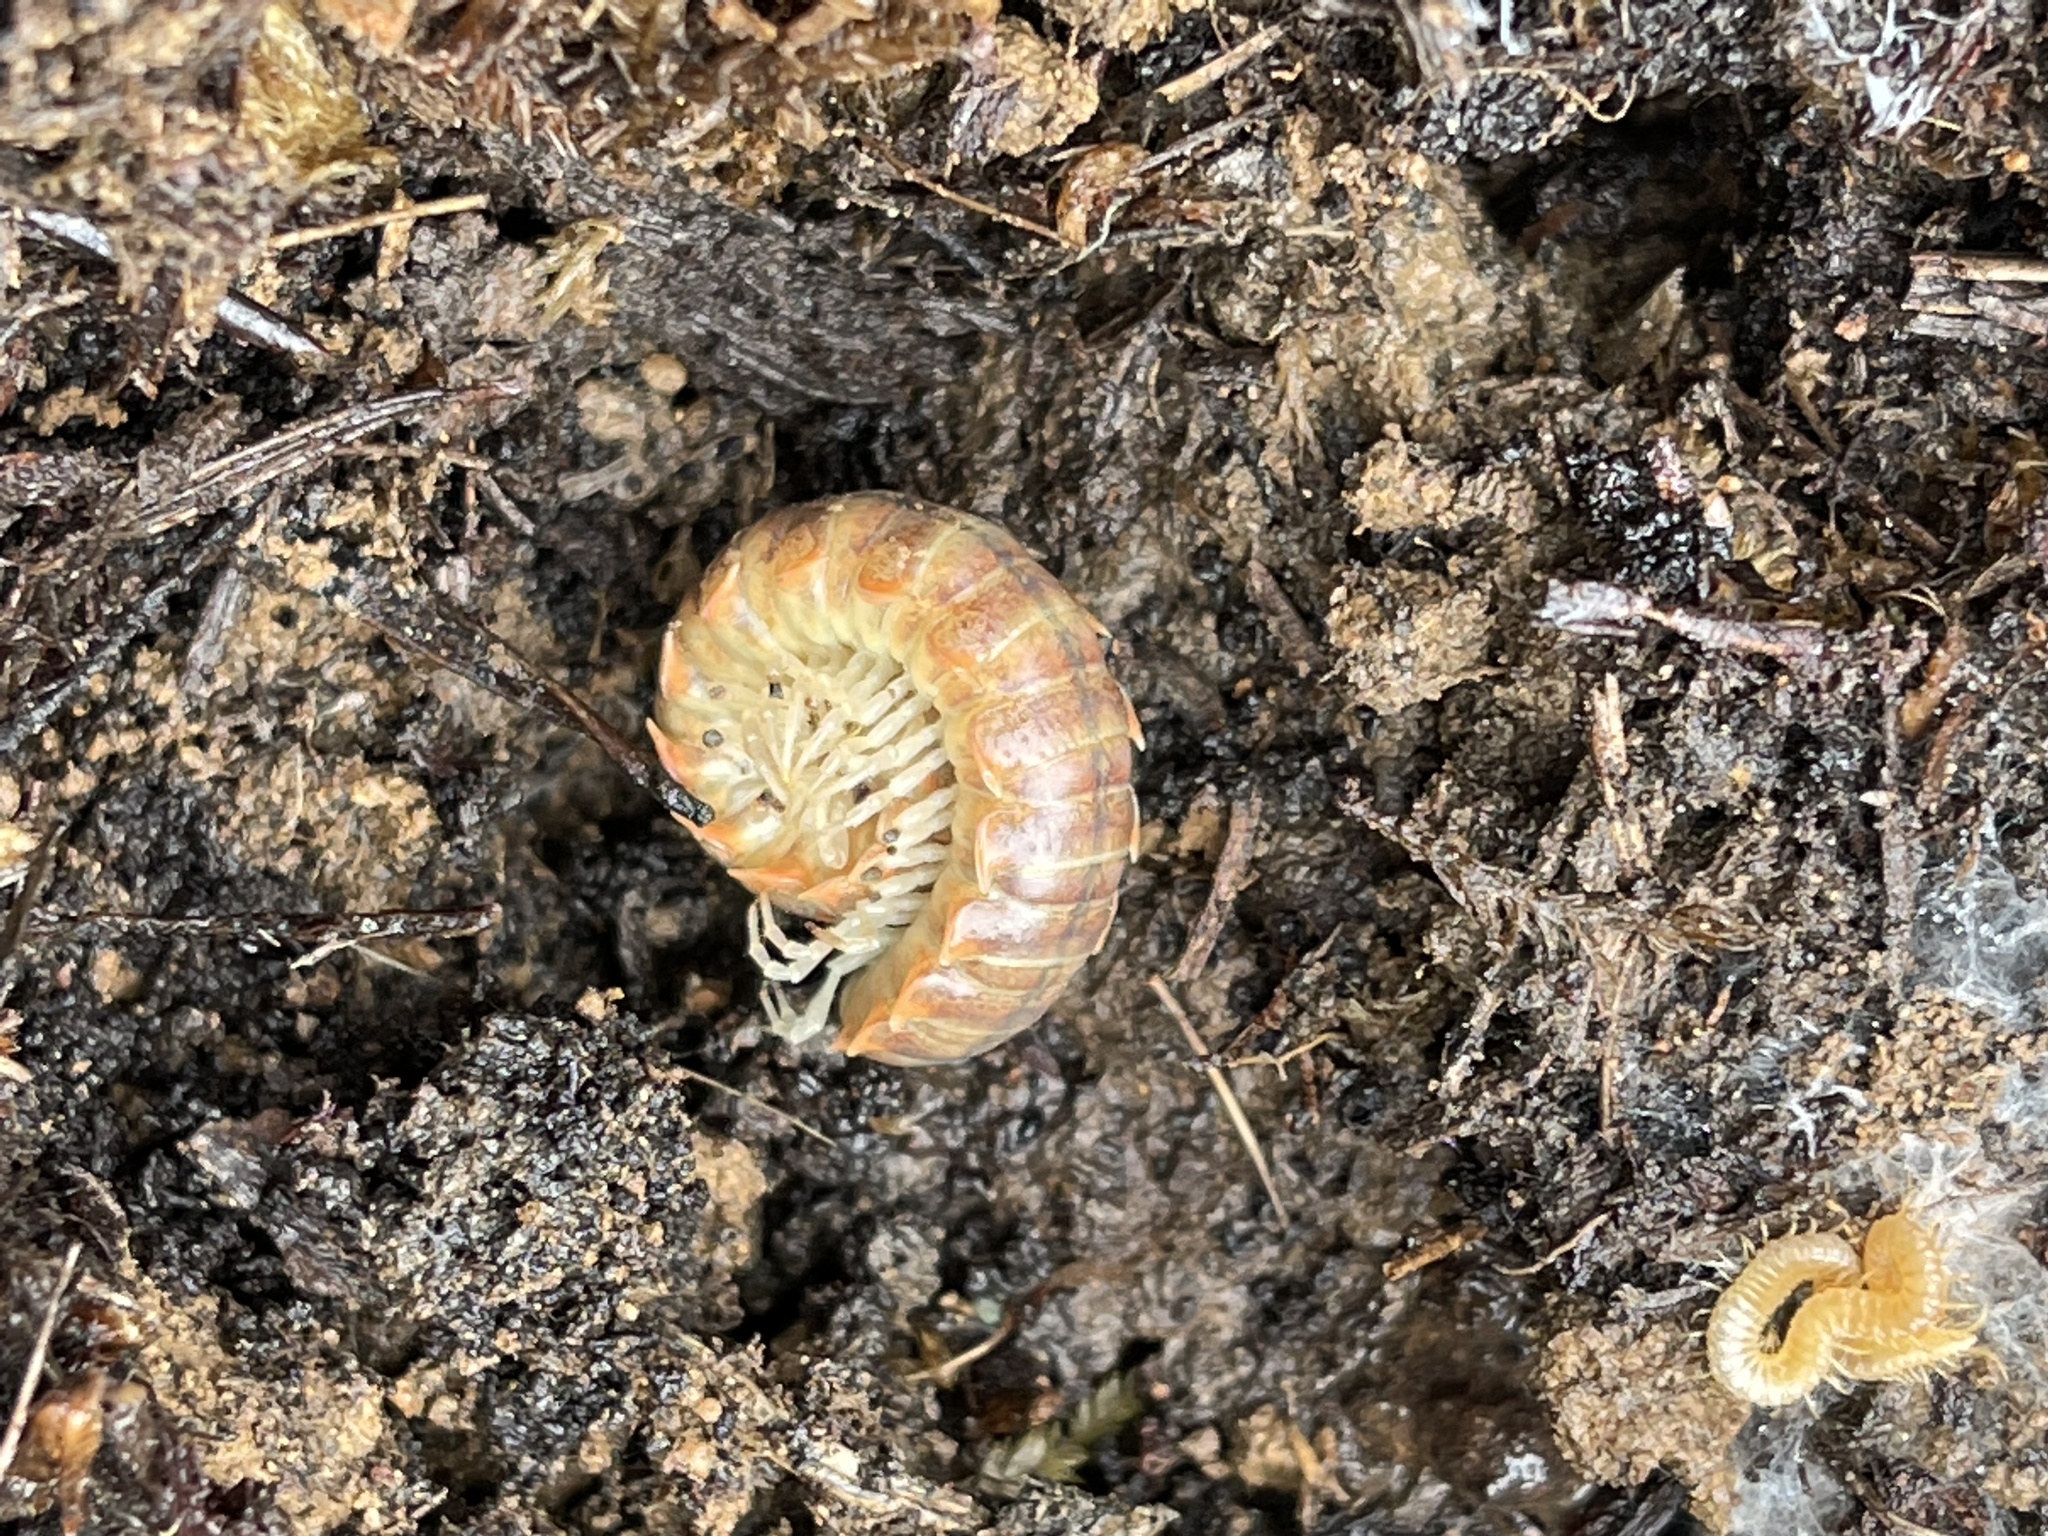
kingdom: Animalia
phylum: Arthropoda
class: Diplopoda
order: Polydesmida
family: Xystodesmidae
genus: Xystocheir
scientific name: Xystocheir dissecta
